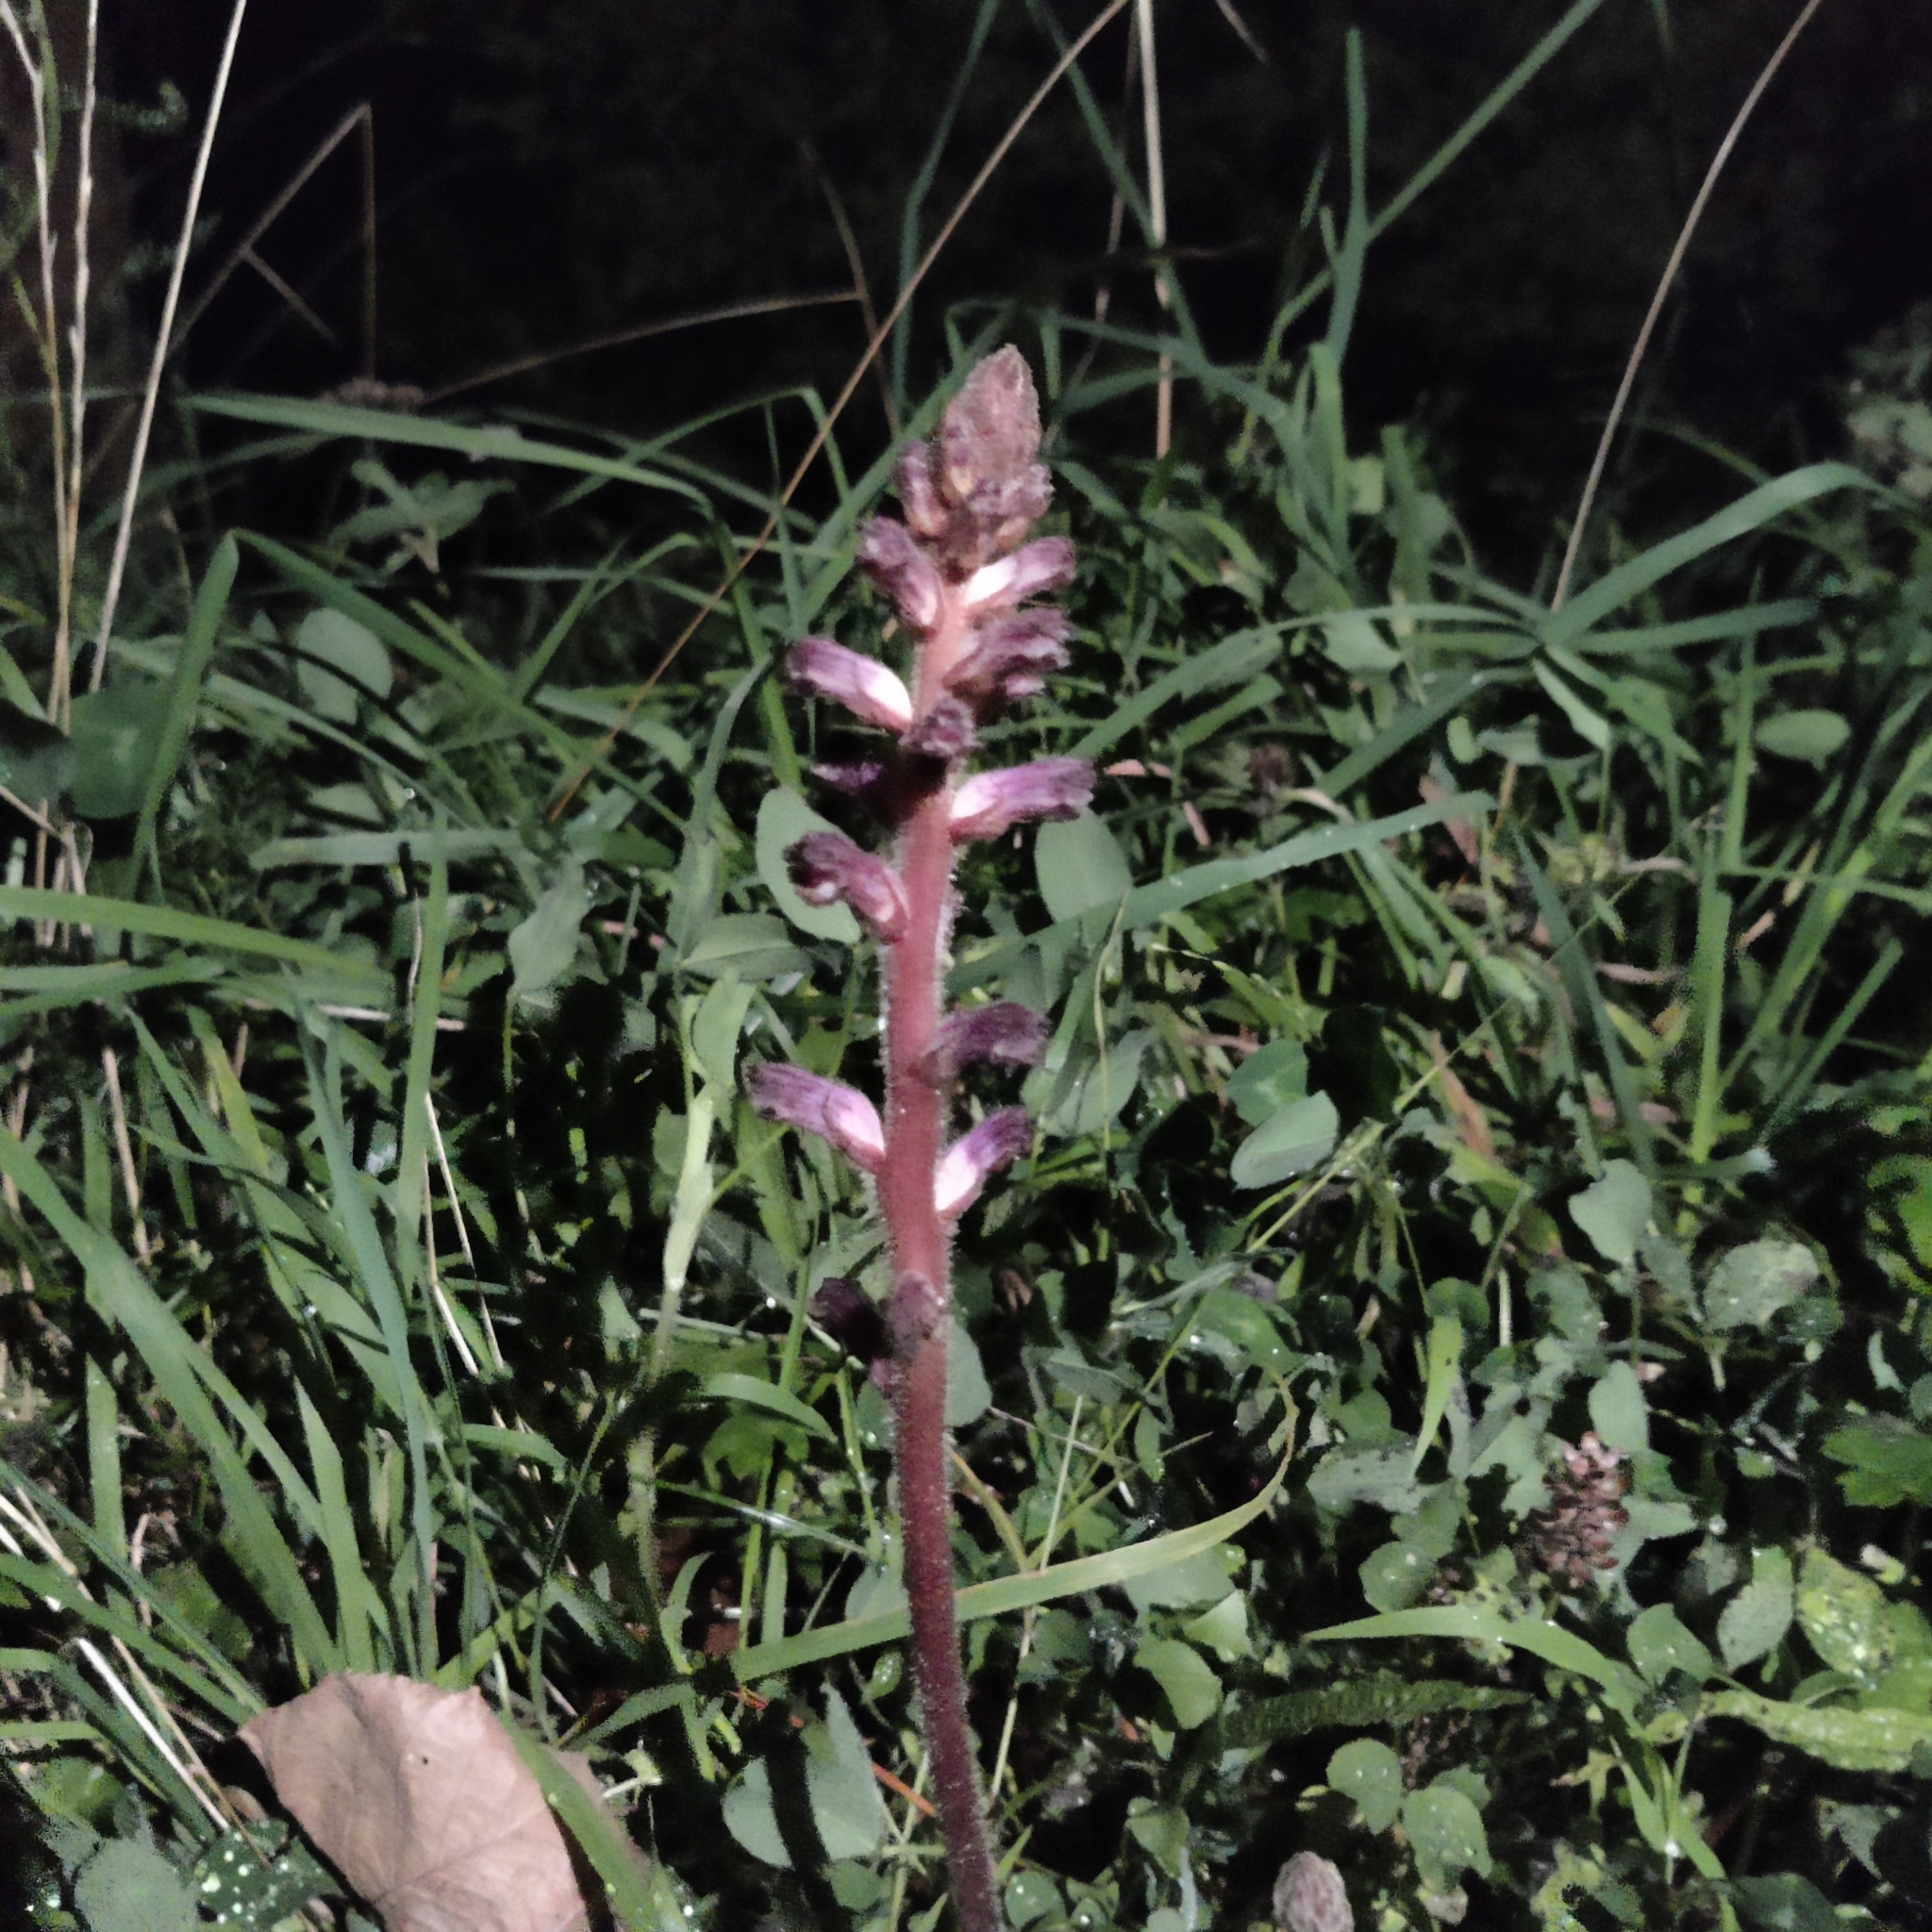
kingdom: Plantae
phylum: Tracheophyta
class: Magnoliopsida
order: Lamiales
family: Orobanchaceae
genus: Orobanche
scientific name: Orobanche minor
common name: Common broomrape
